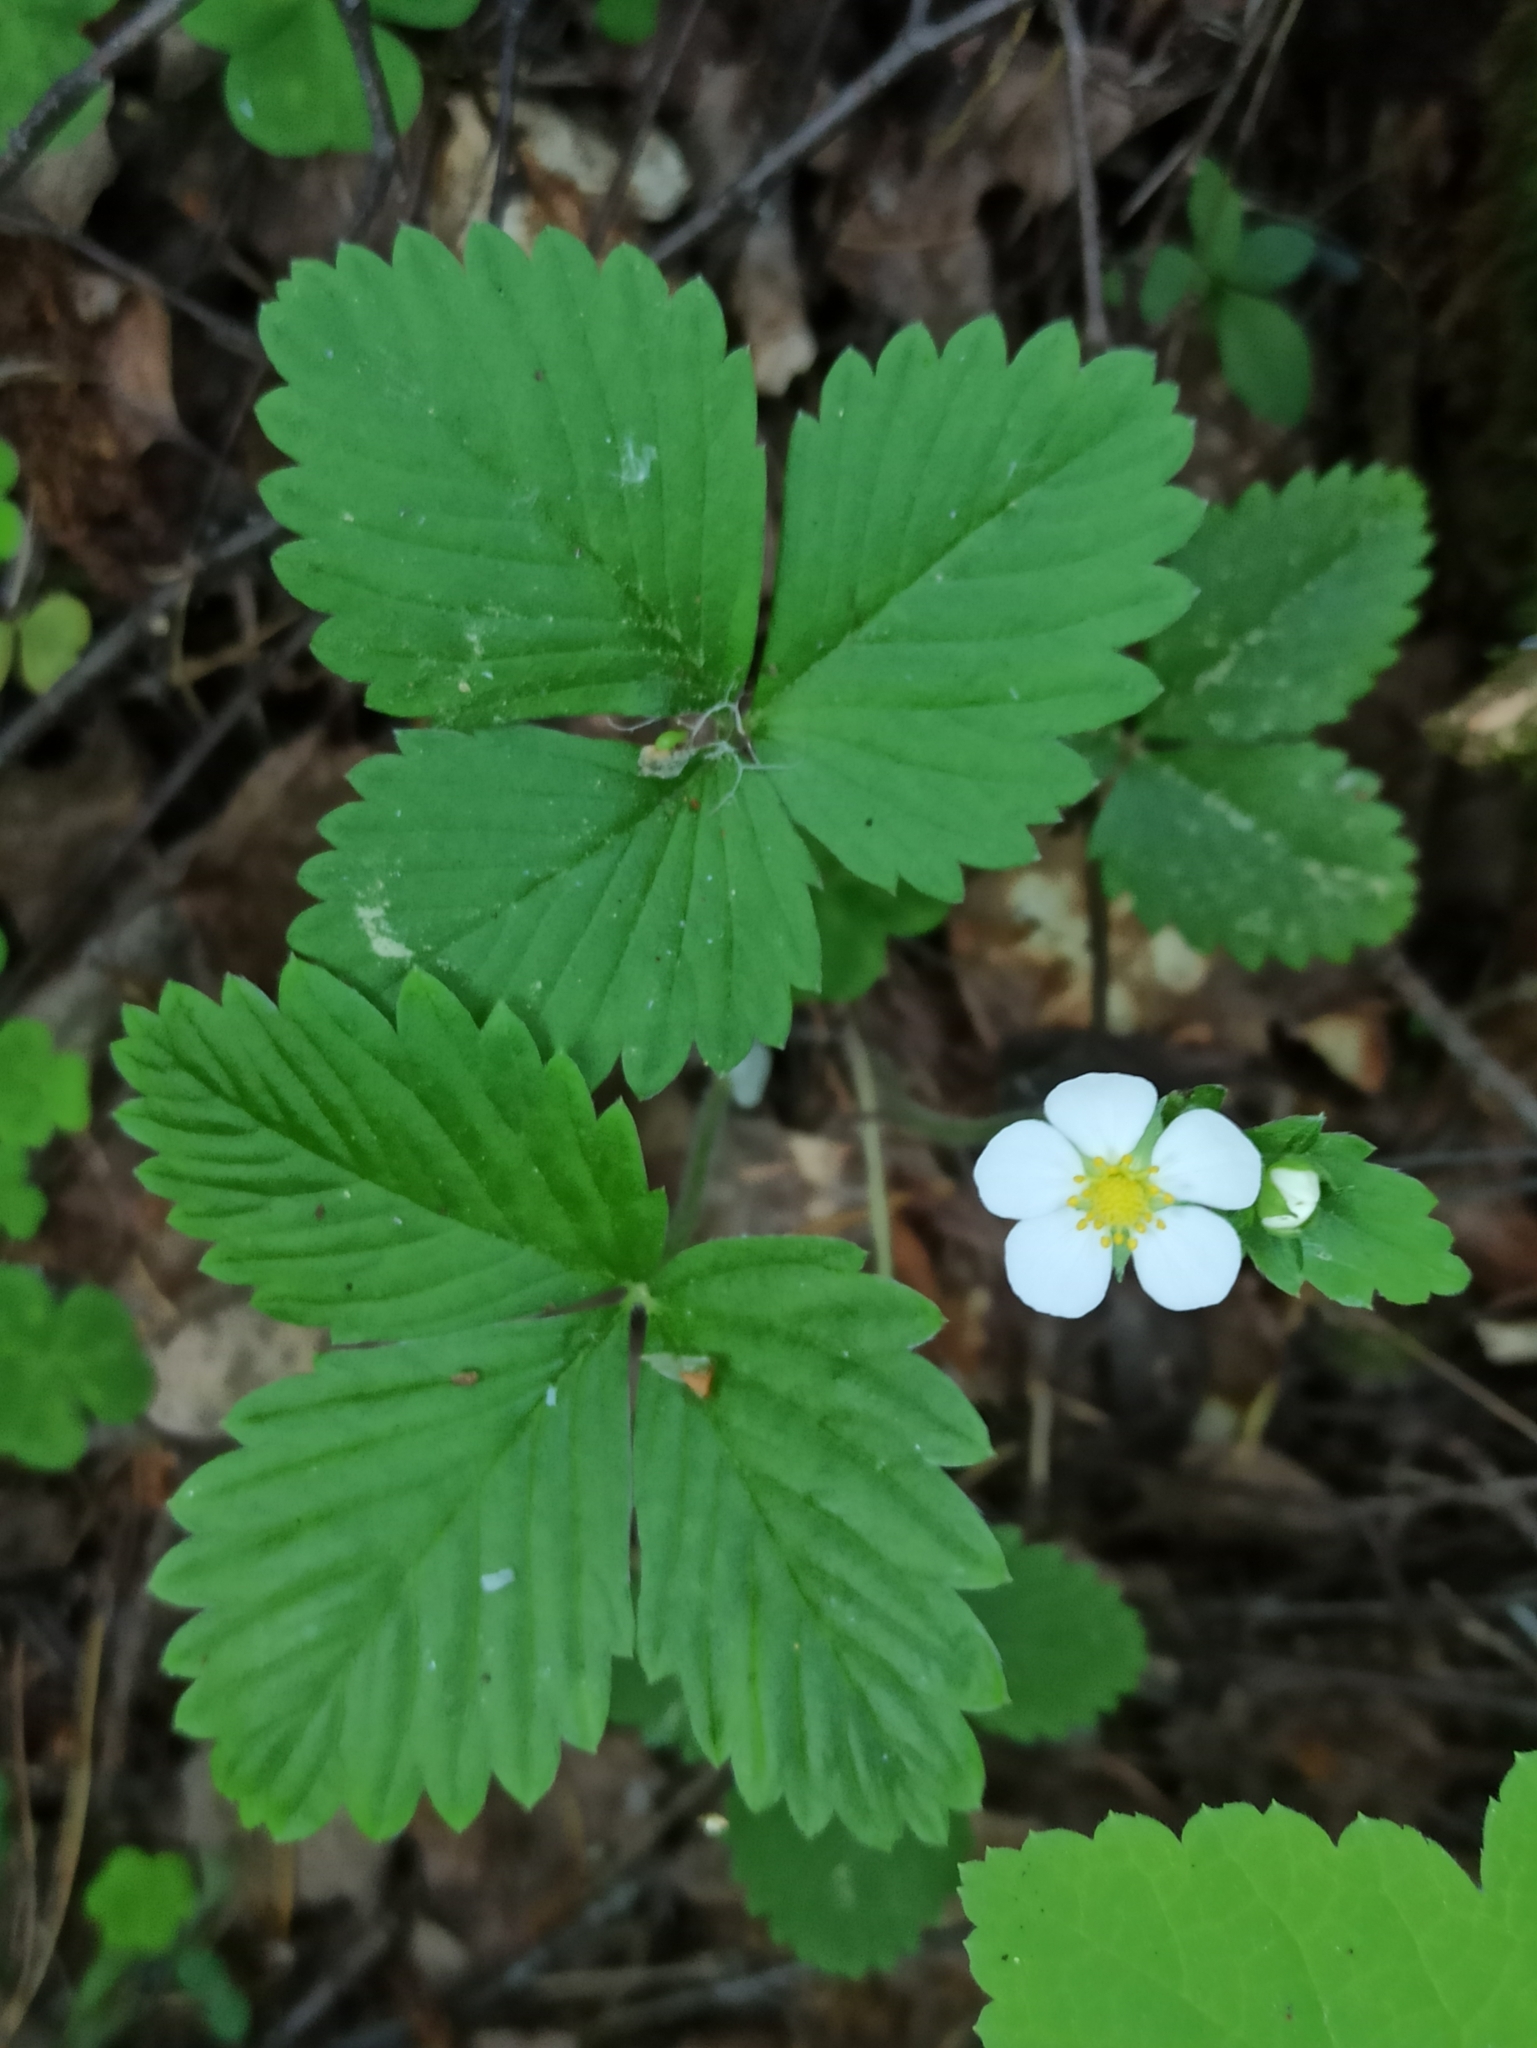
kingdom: Plantae
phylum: Tracheophyta
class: Magnoliopsida
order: Rosales
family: Rosaceae
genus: Fragaria
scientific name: Fragaria vesca
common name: Wild strawberry
